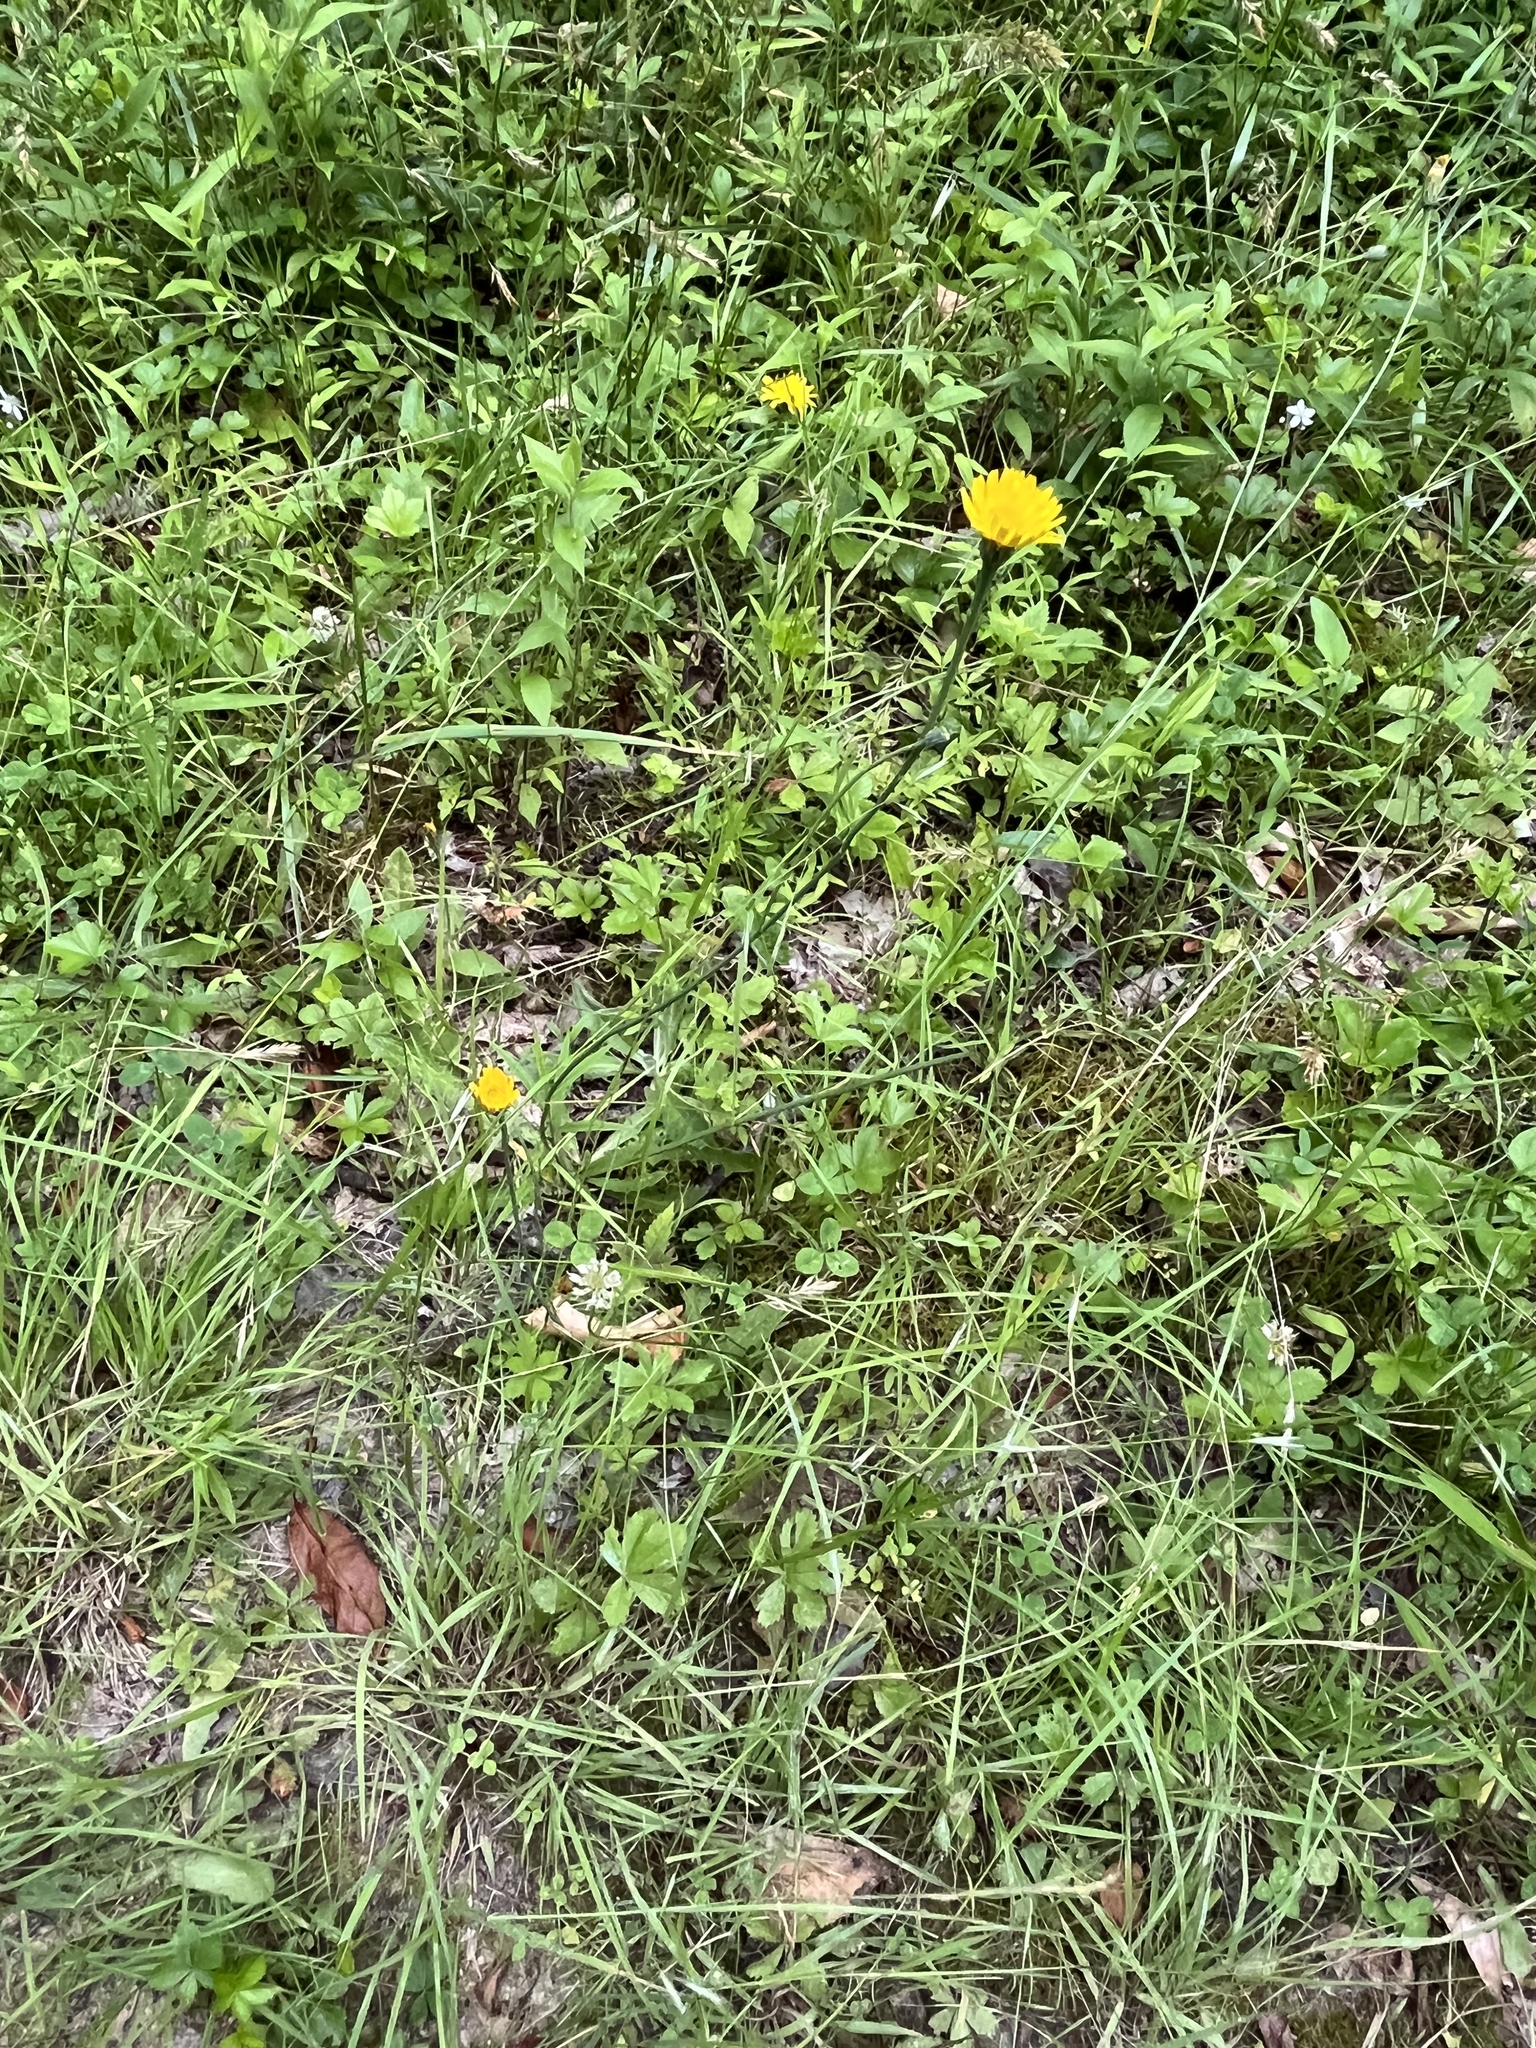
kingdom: Plantae
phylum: Tracheophyta
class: Magnoliopsida
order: Asterales
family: Asteraceae
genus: Hypochaeris
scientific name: Hypochaeris radicata
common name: Flatweed
